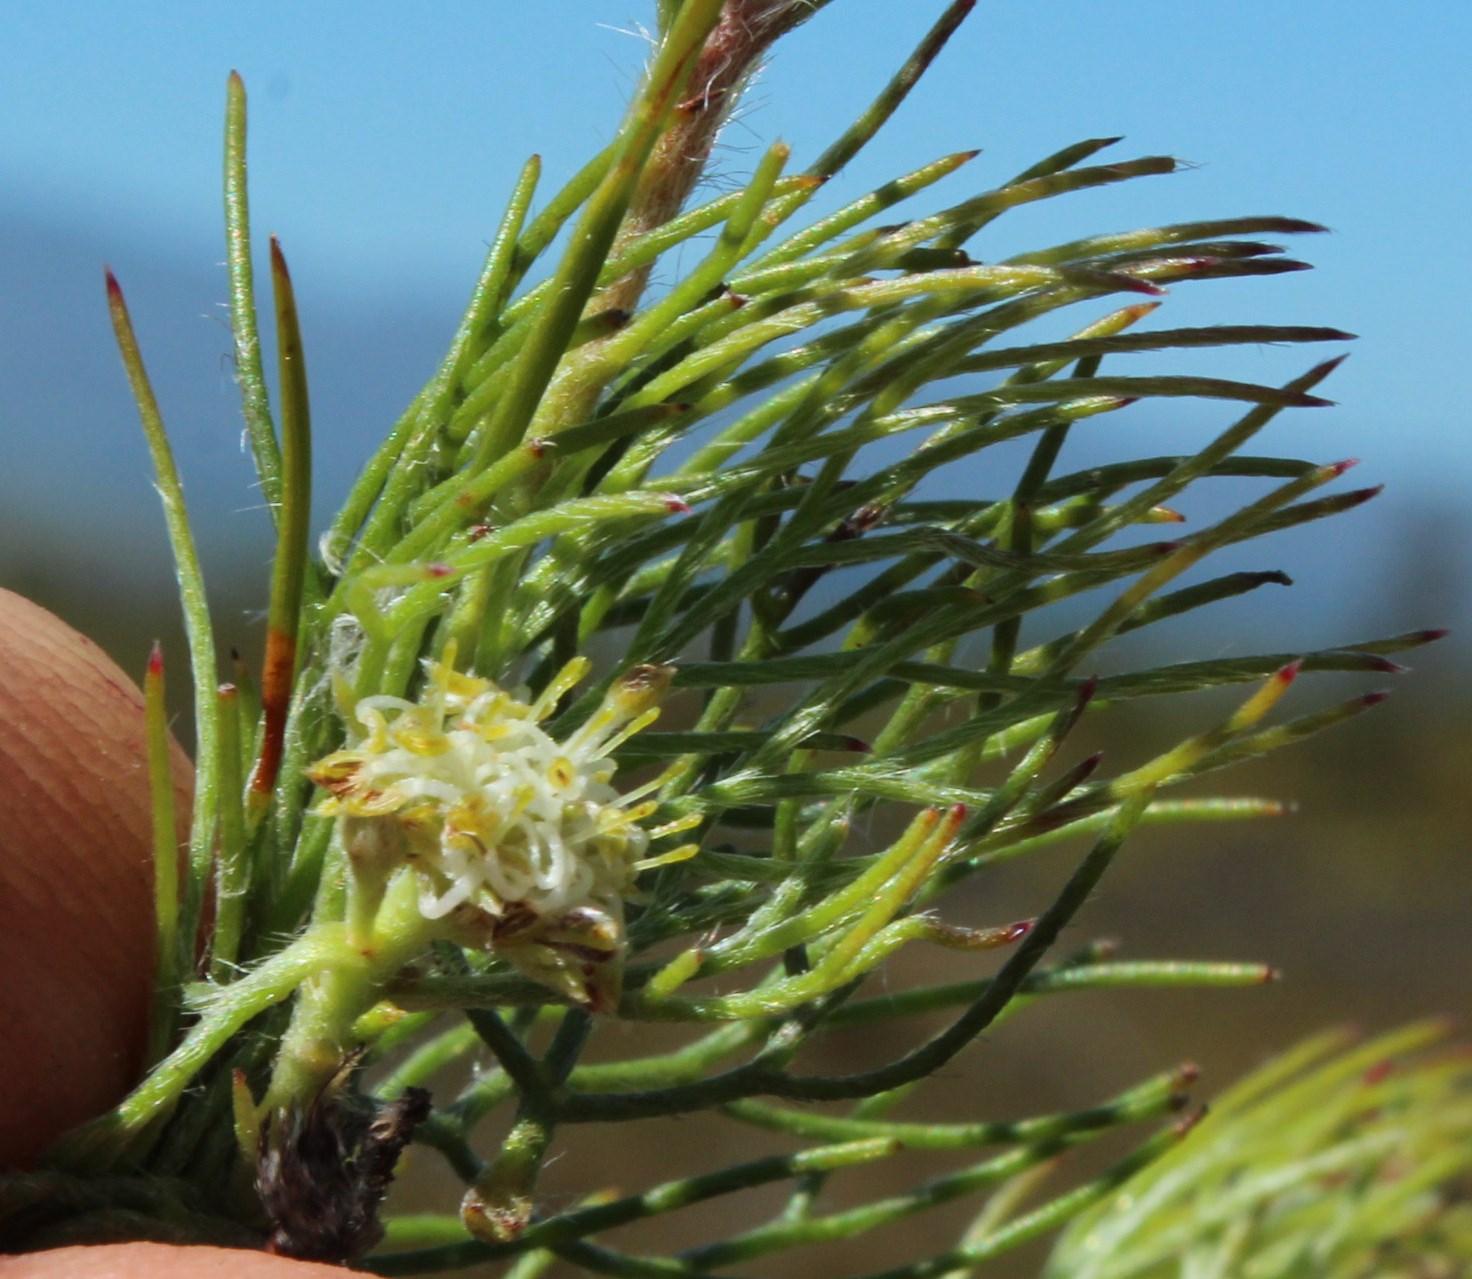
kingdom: Plantae
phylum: Tracheophyta
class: Magnoliopsida
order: Proteales
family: Proteaceae
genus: Serruria
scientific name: Serruria inconspicua
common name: Cryptic spiderhead
